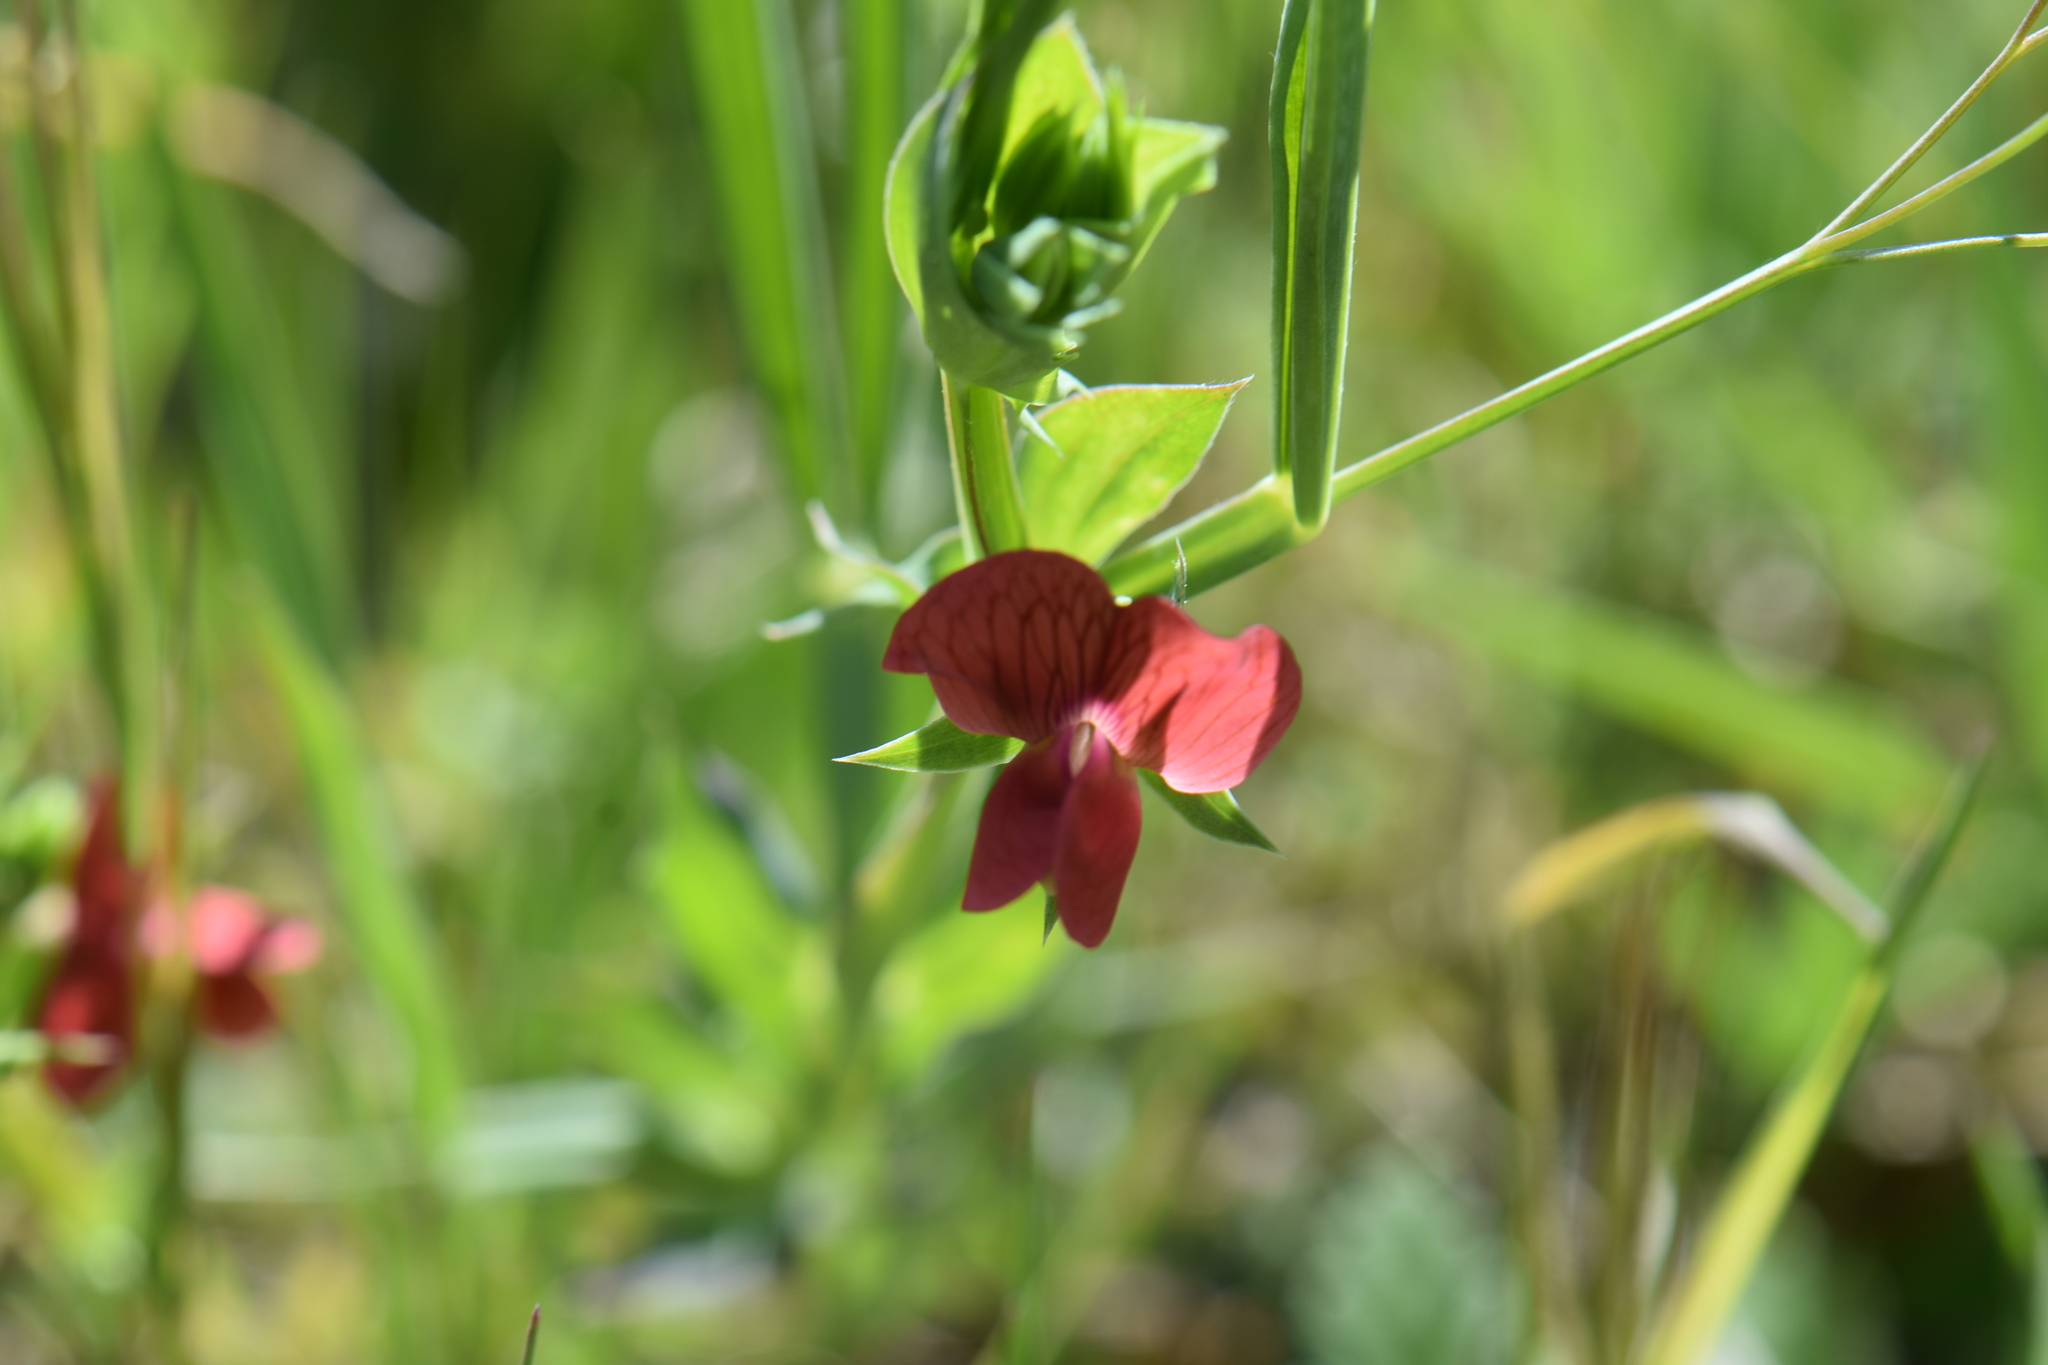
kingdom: Plantae
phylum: Tracheophyta
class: Magnoliopsida
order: Fabales
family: Fabaceae
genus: Lathyrus
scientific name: Lathyrus cicera
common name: Red vetchling
